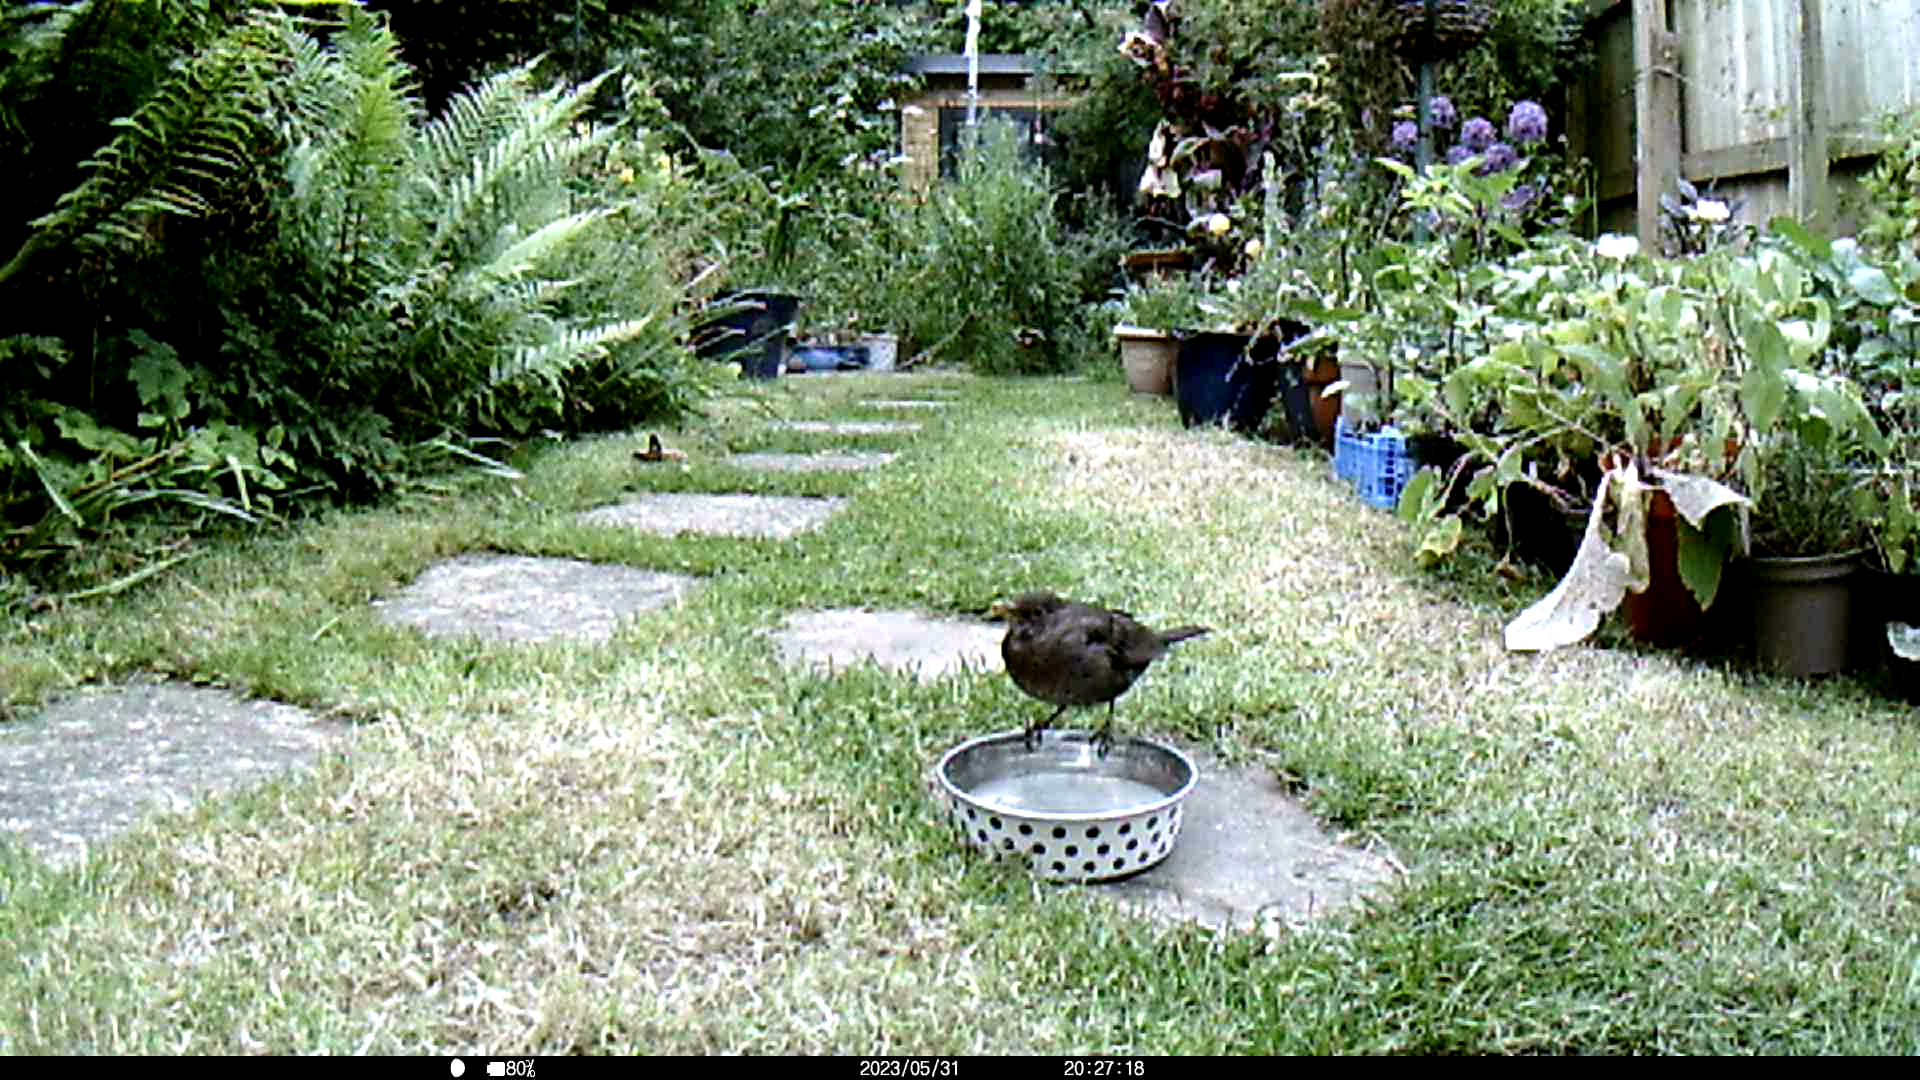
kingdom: Animalia
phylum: Chordata
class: Aves
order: Passeriformes
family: Turdidae
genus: Turdus
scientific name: Turdus merula
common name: Common blackbird
